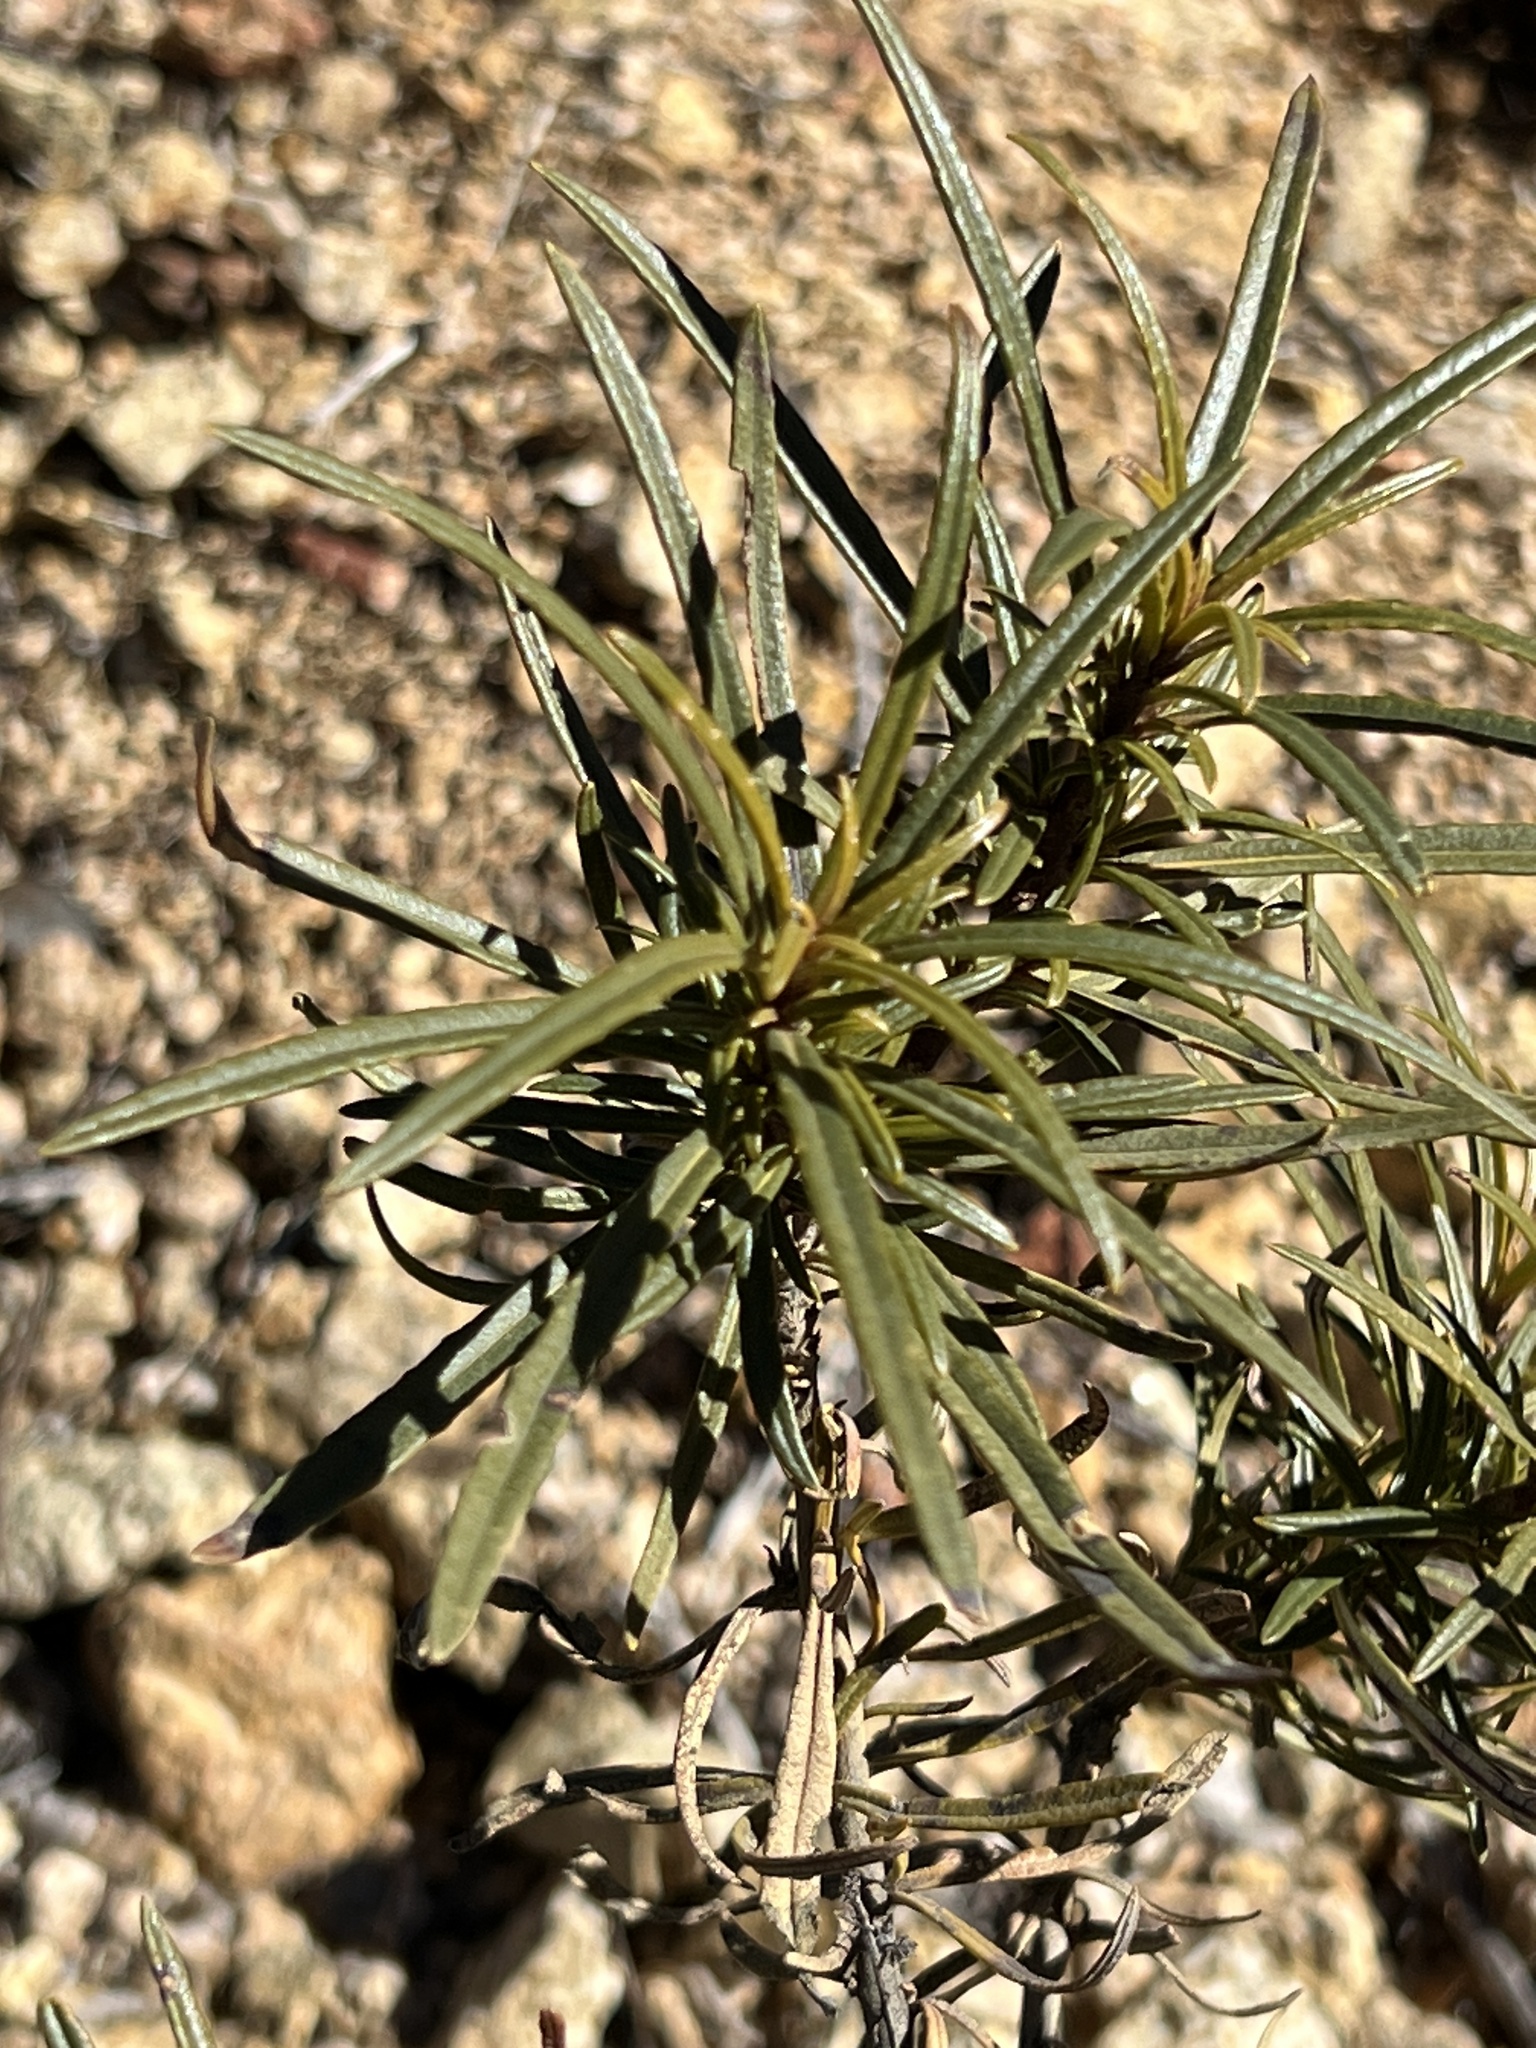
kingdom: Plantae
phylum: Tracheophyta
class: Magnoliopsida
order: Boraginales
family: Namaceae
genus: Eriodictyon
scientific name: Eriodictyon angustifolium
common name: Narrow-leaf yerba santa
